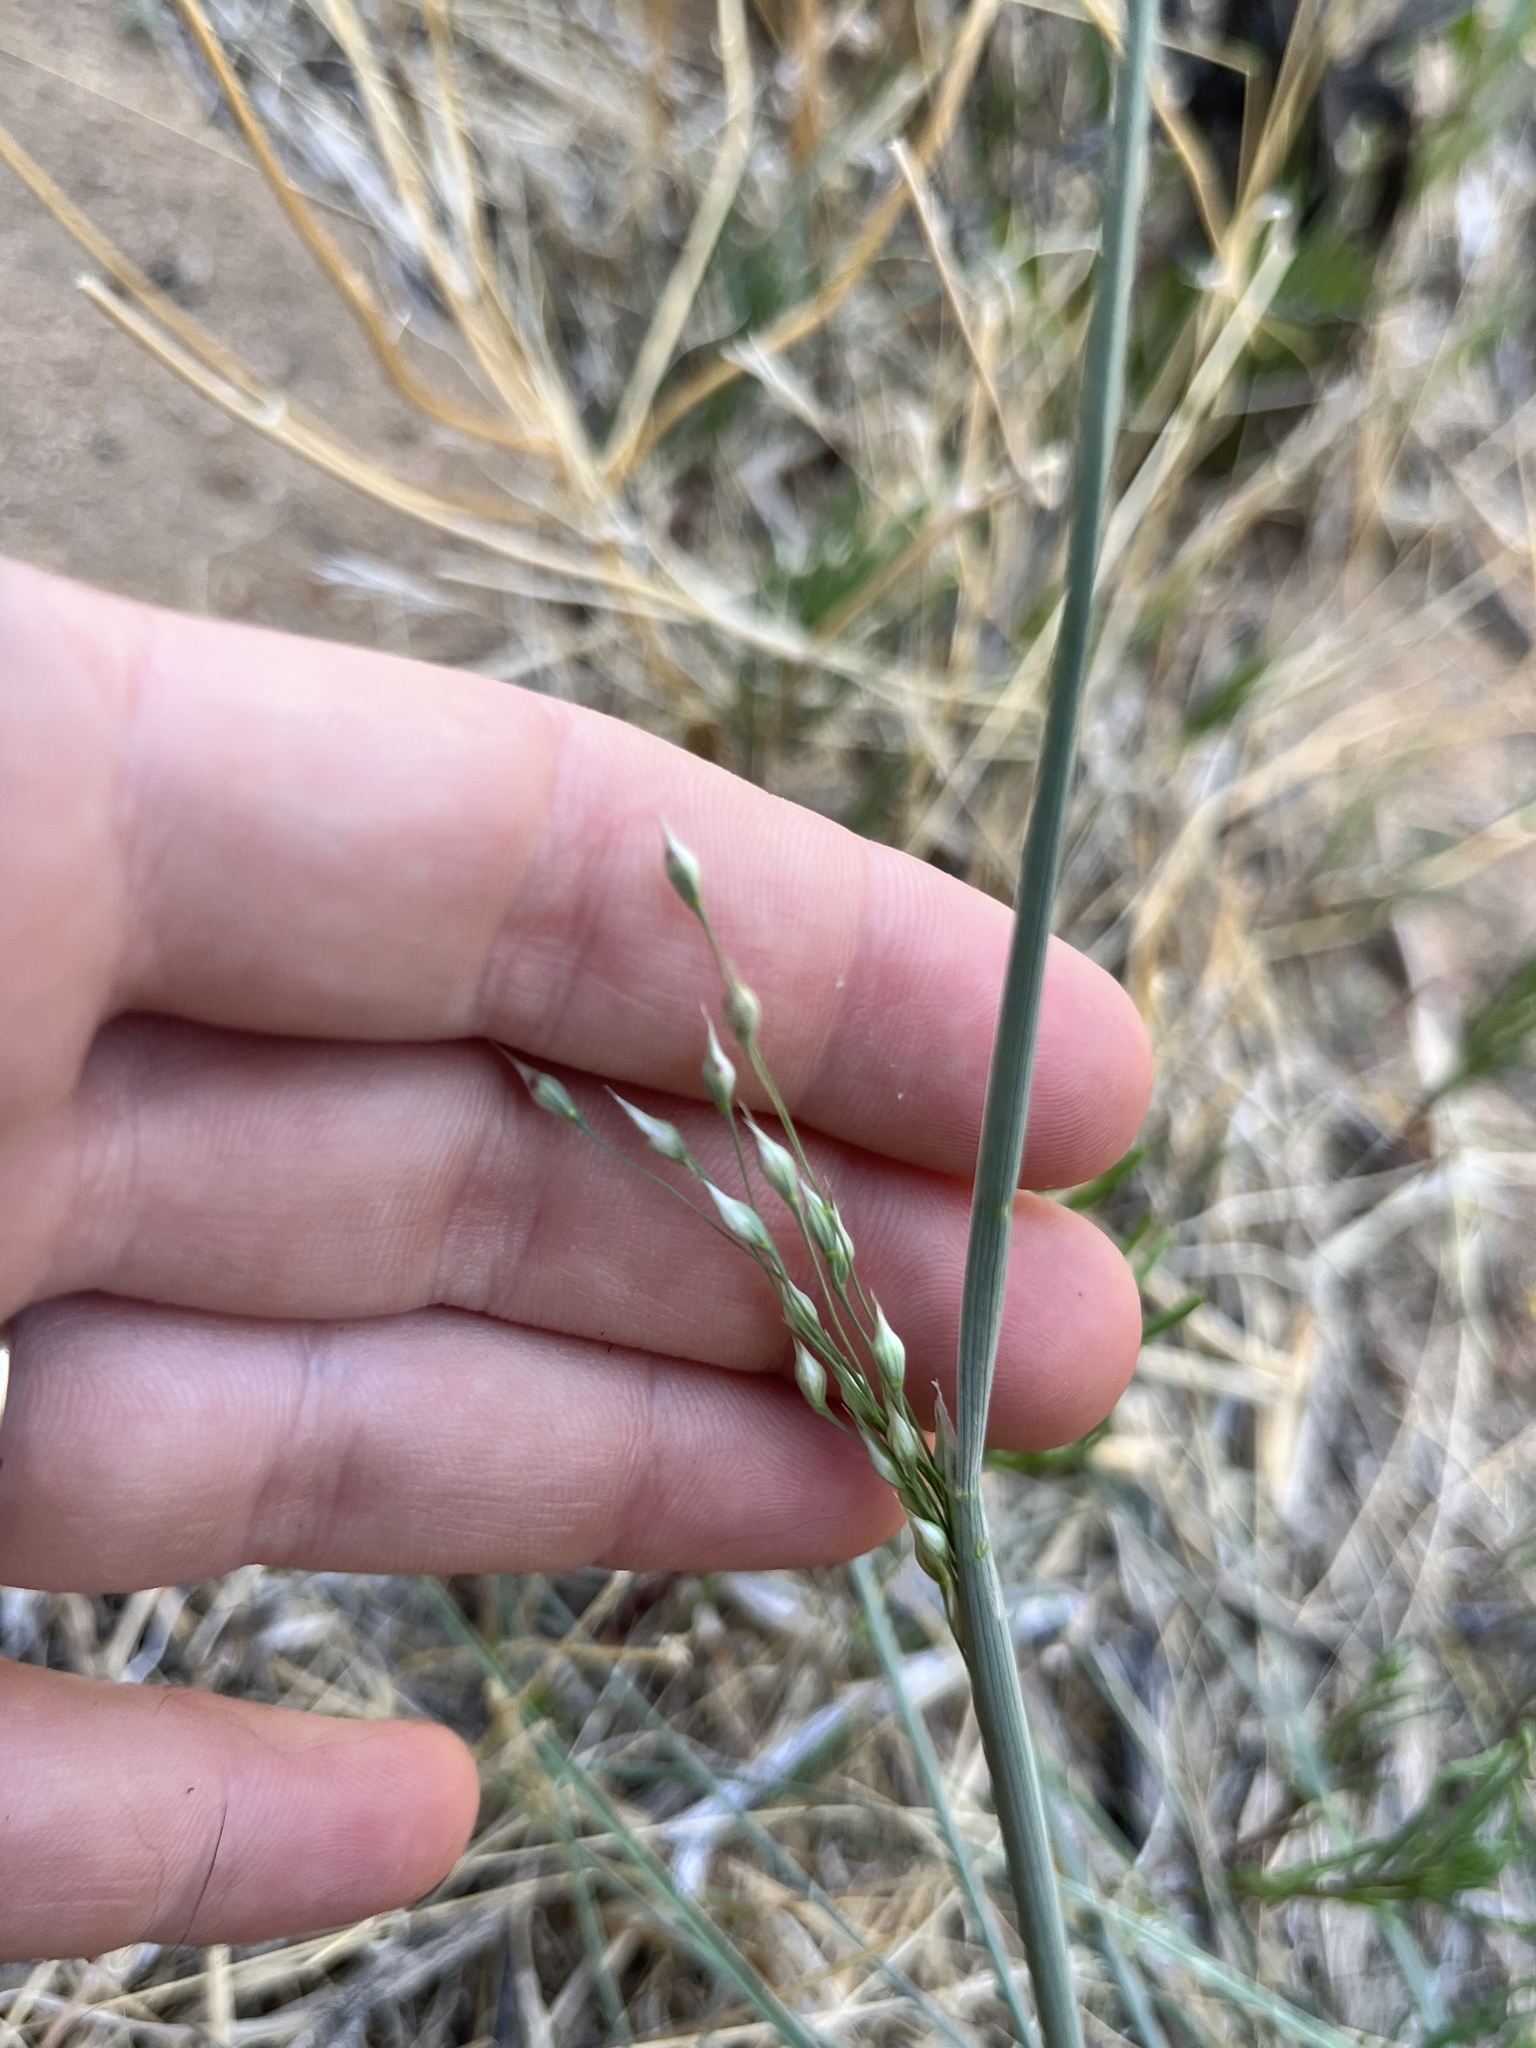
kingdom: Plantae
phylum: Tracheophyta
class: Liliopsida
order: Poales
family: Poaceae
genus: Eriocoma
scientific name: Eriocoma hymenoides
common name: Indian mountain ricegrass
